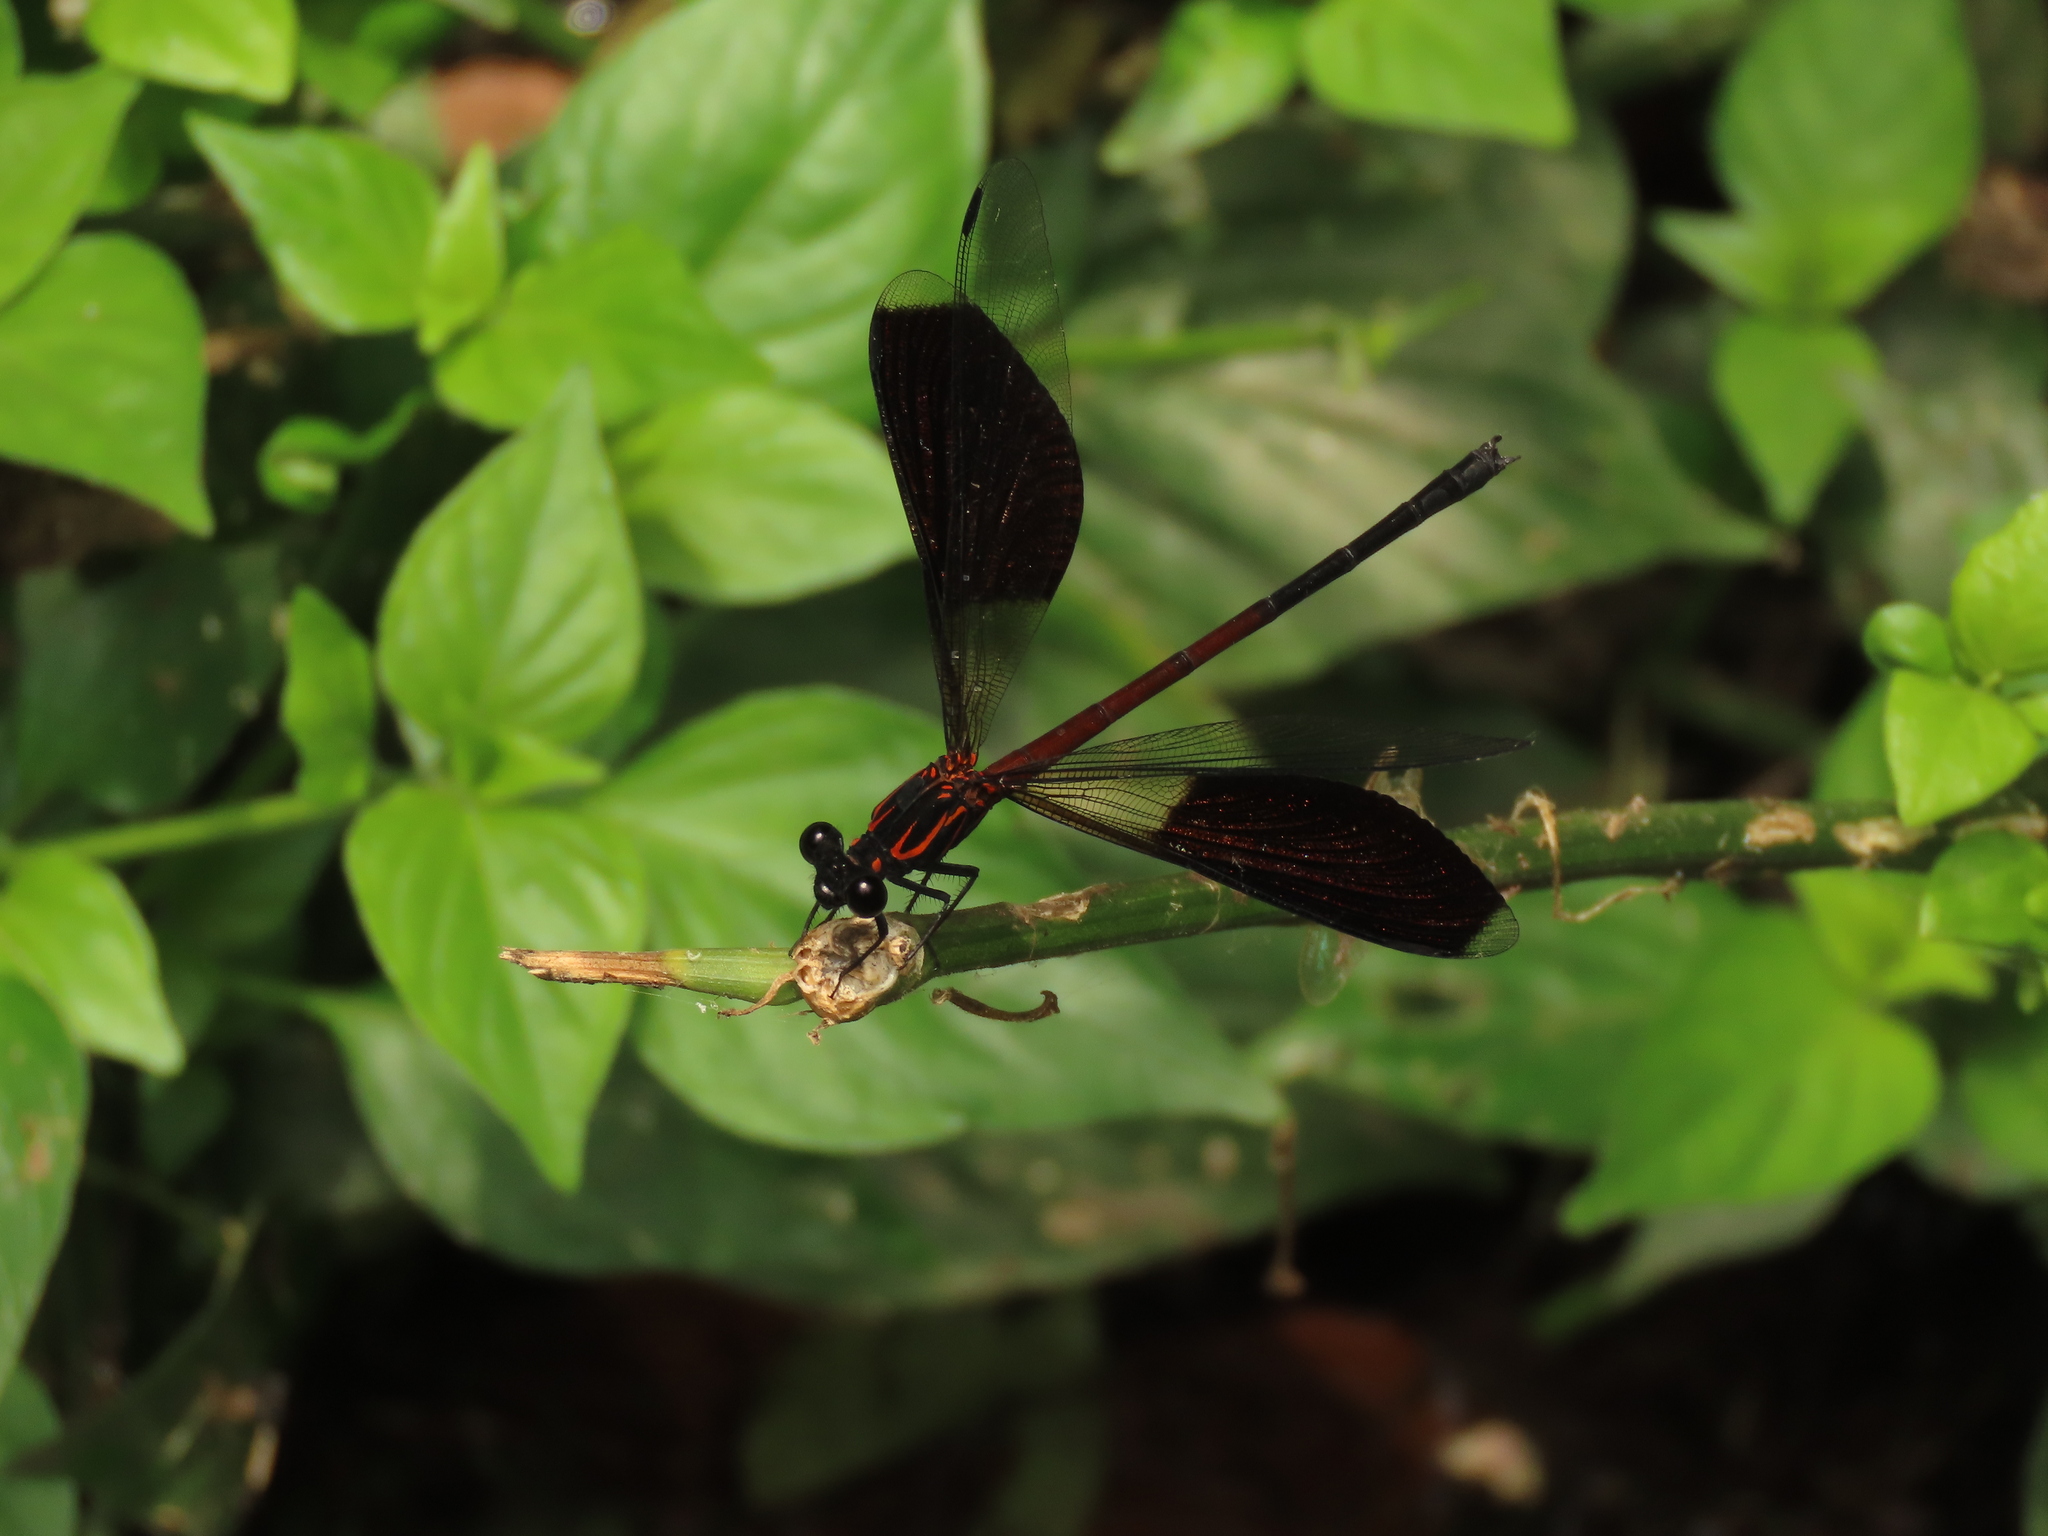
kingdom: Animalia
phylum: Arthropoda
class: Insecta
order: Odonata
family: Euphaeidae
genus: Euphaea
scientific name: Euphaea formosa
